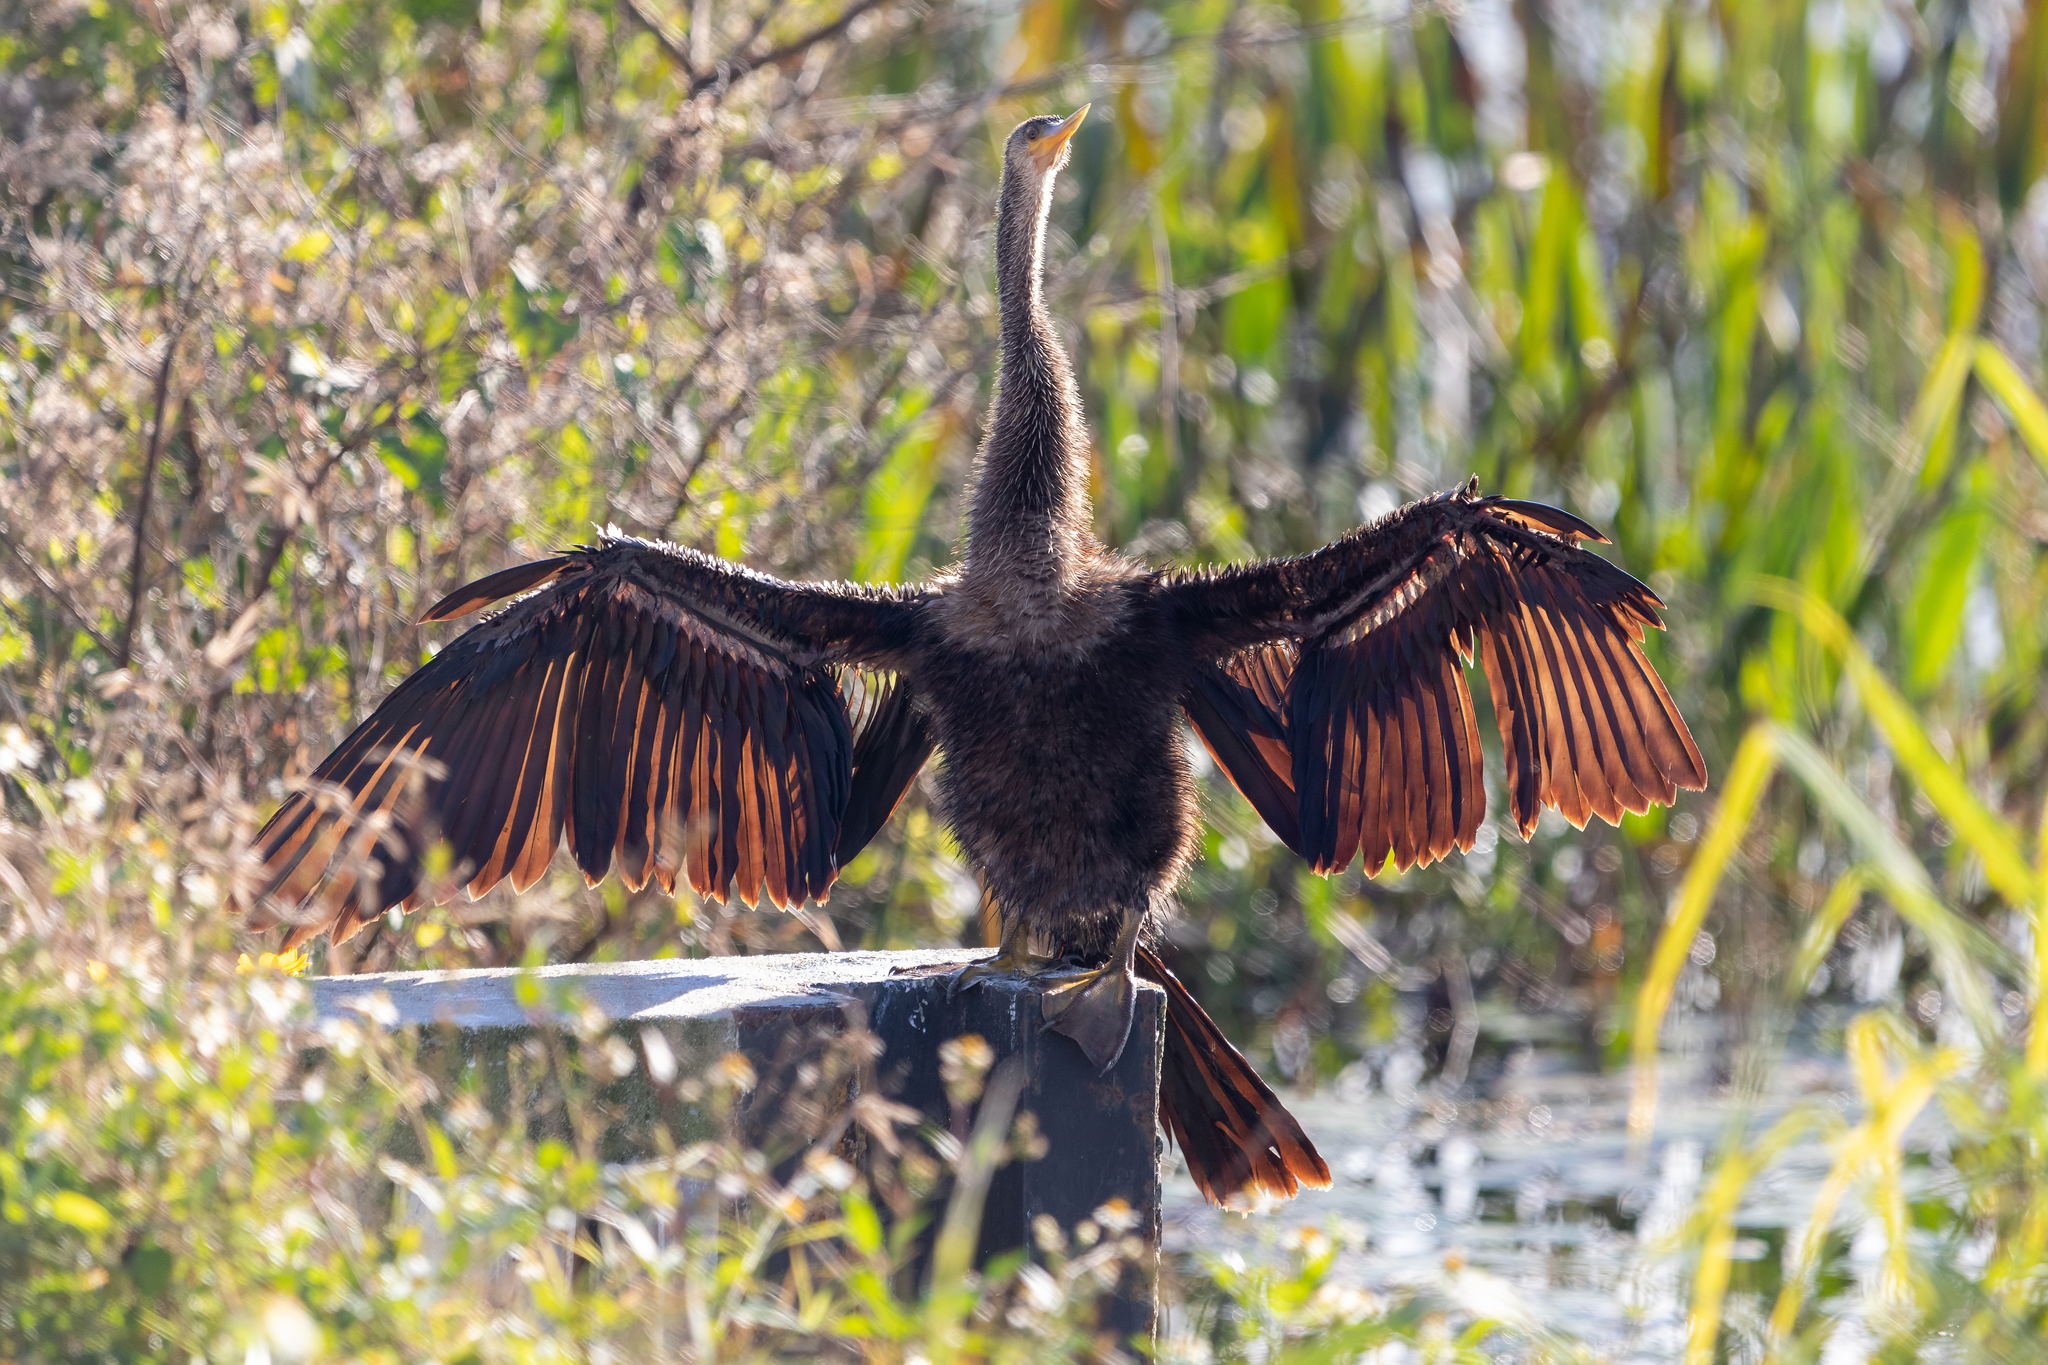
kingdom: Animalia
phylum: Chordata
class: Aves
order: Suliformes
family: Anhingidae
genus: Anhinga
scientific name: Anhinga anhinga
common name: Anhinga
